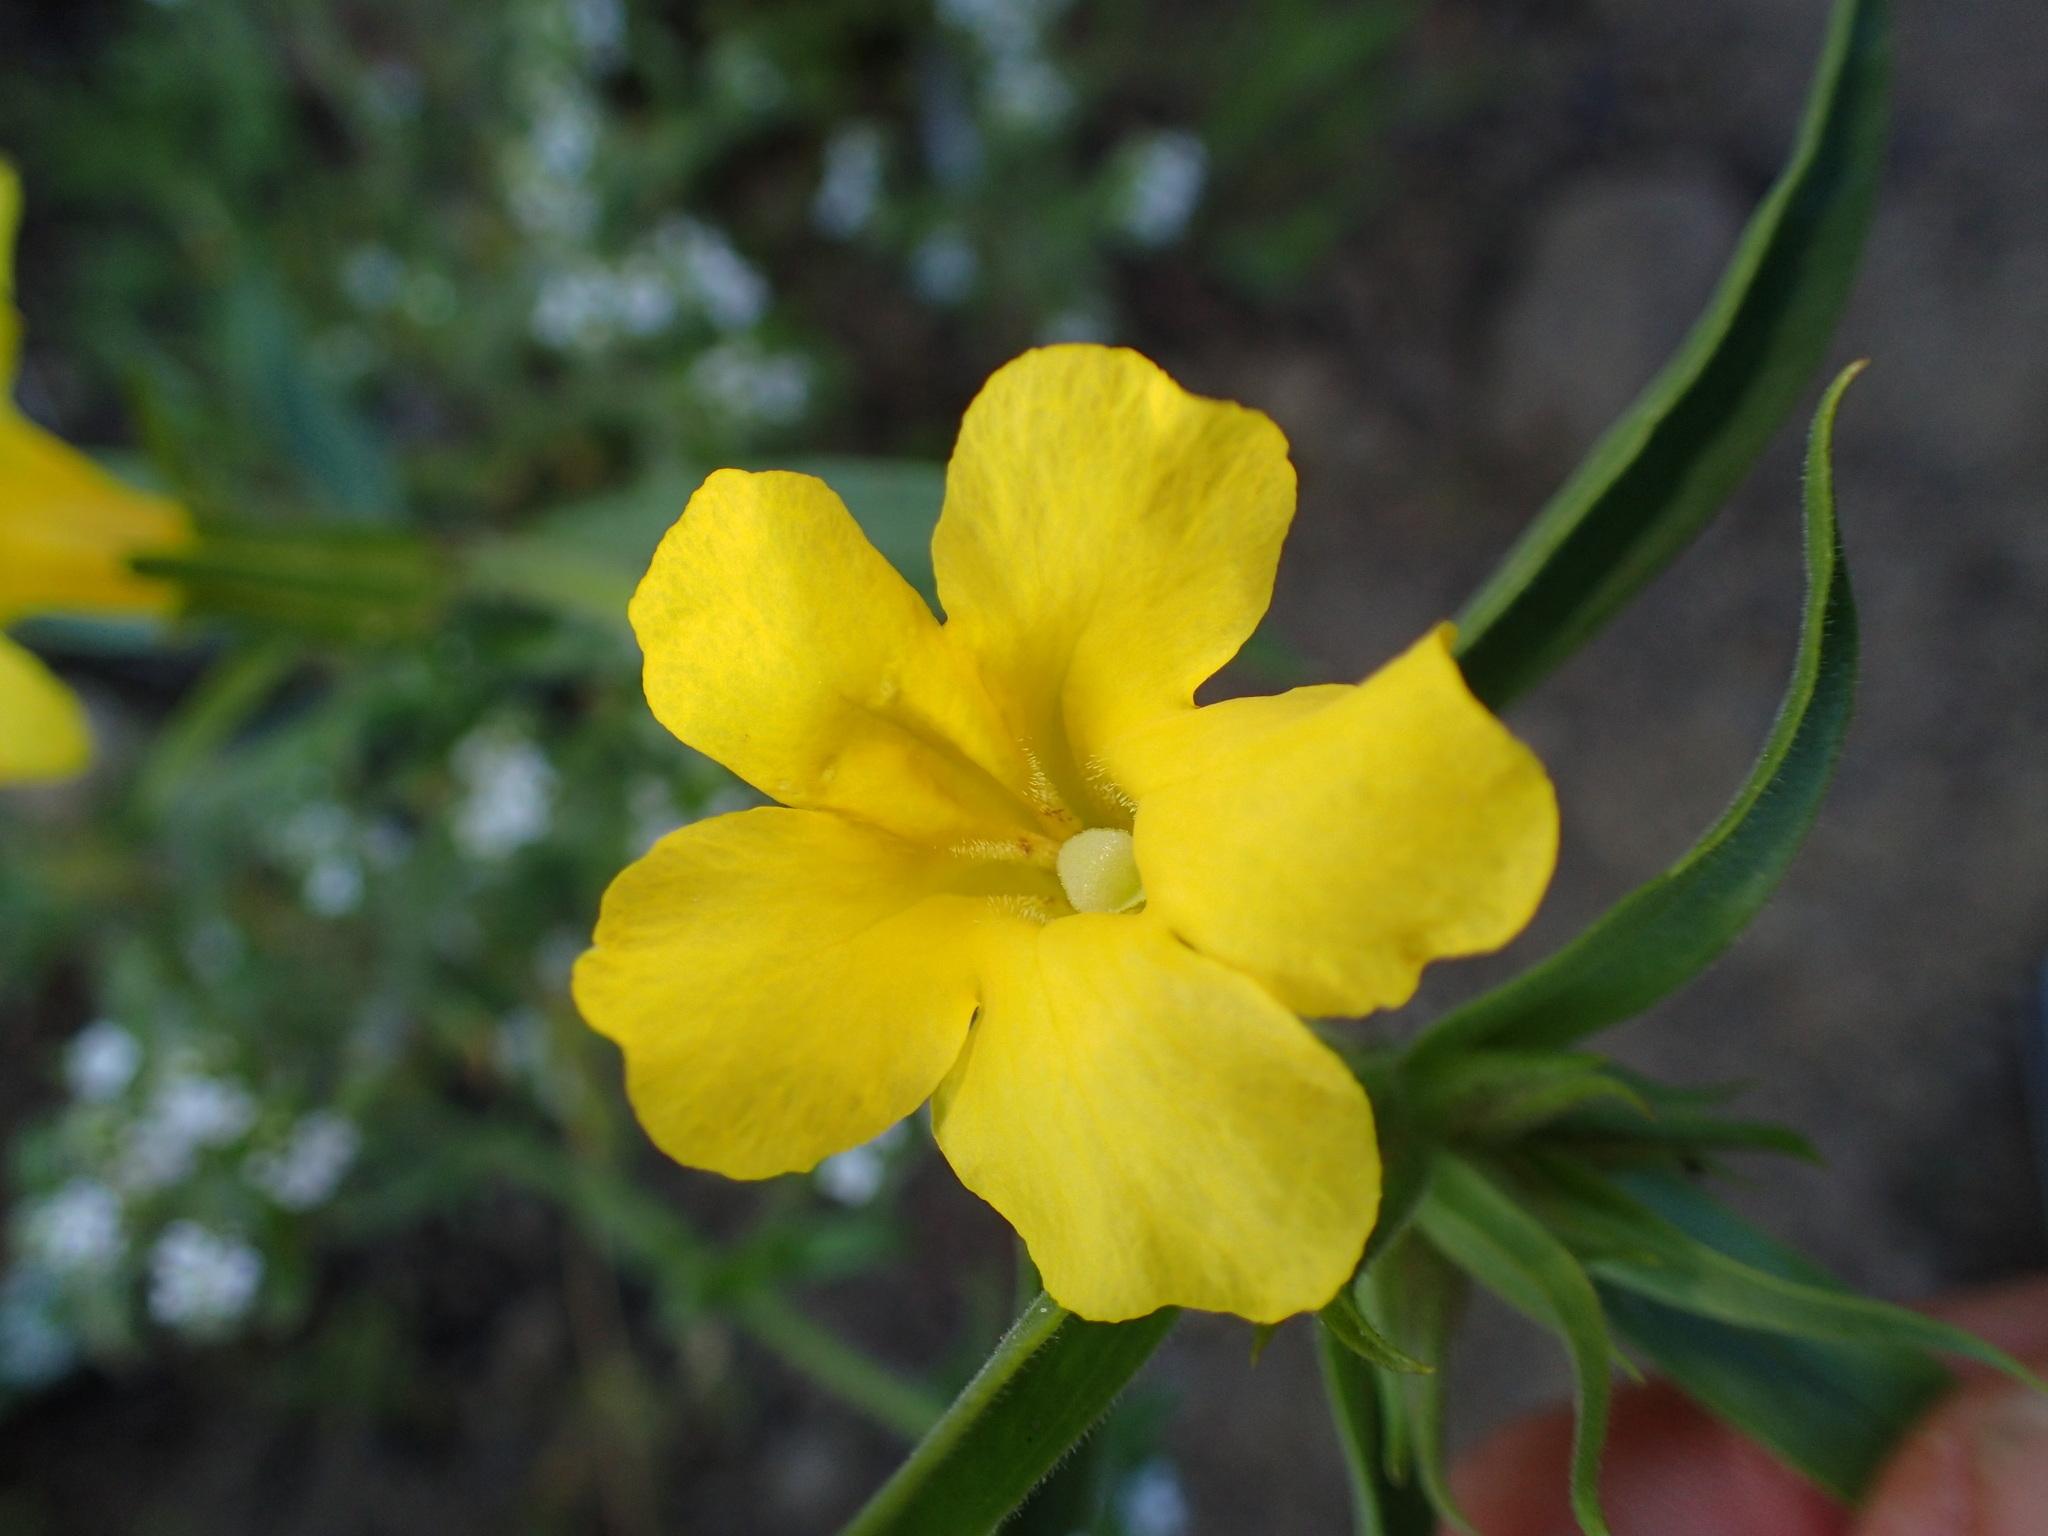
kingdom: Plantae
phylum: Tracheophyta
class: Magnoliopsida
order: Lamiales
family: Phrymaceae
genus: Diplacus
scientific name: Diplacus brevipes
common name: Wide-throat yellow monkey-flower
